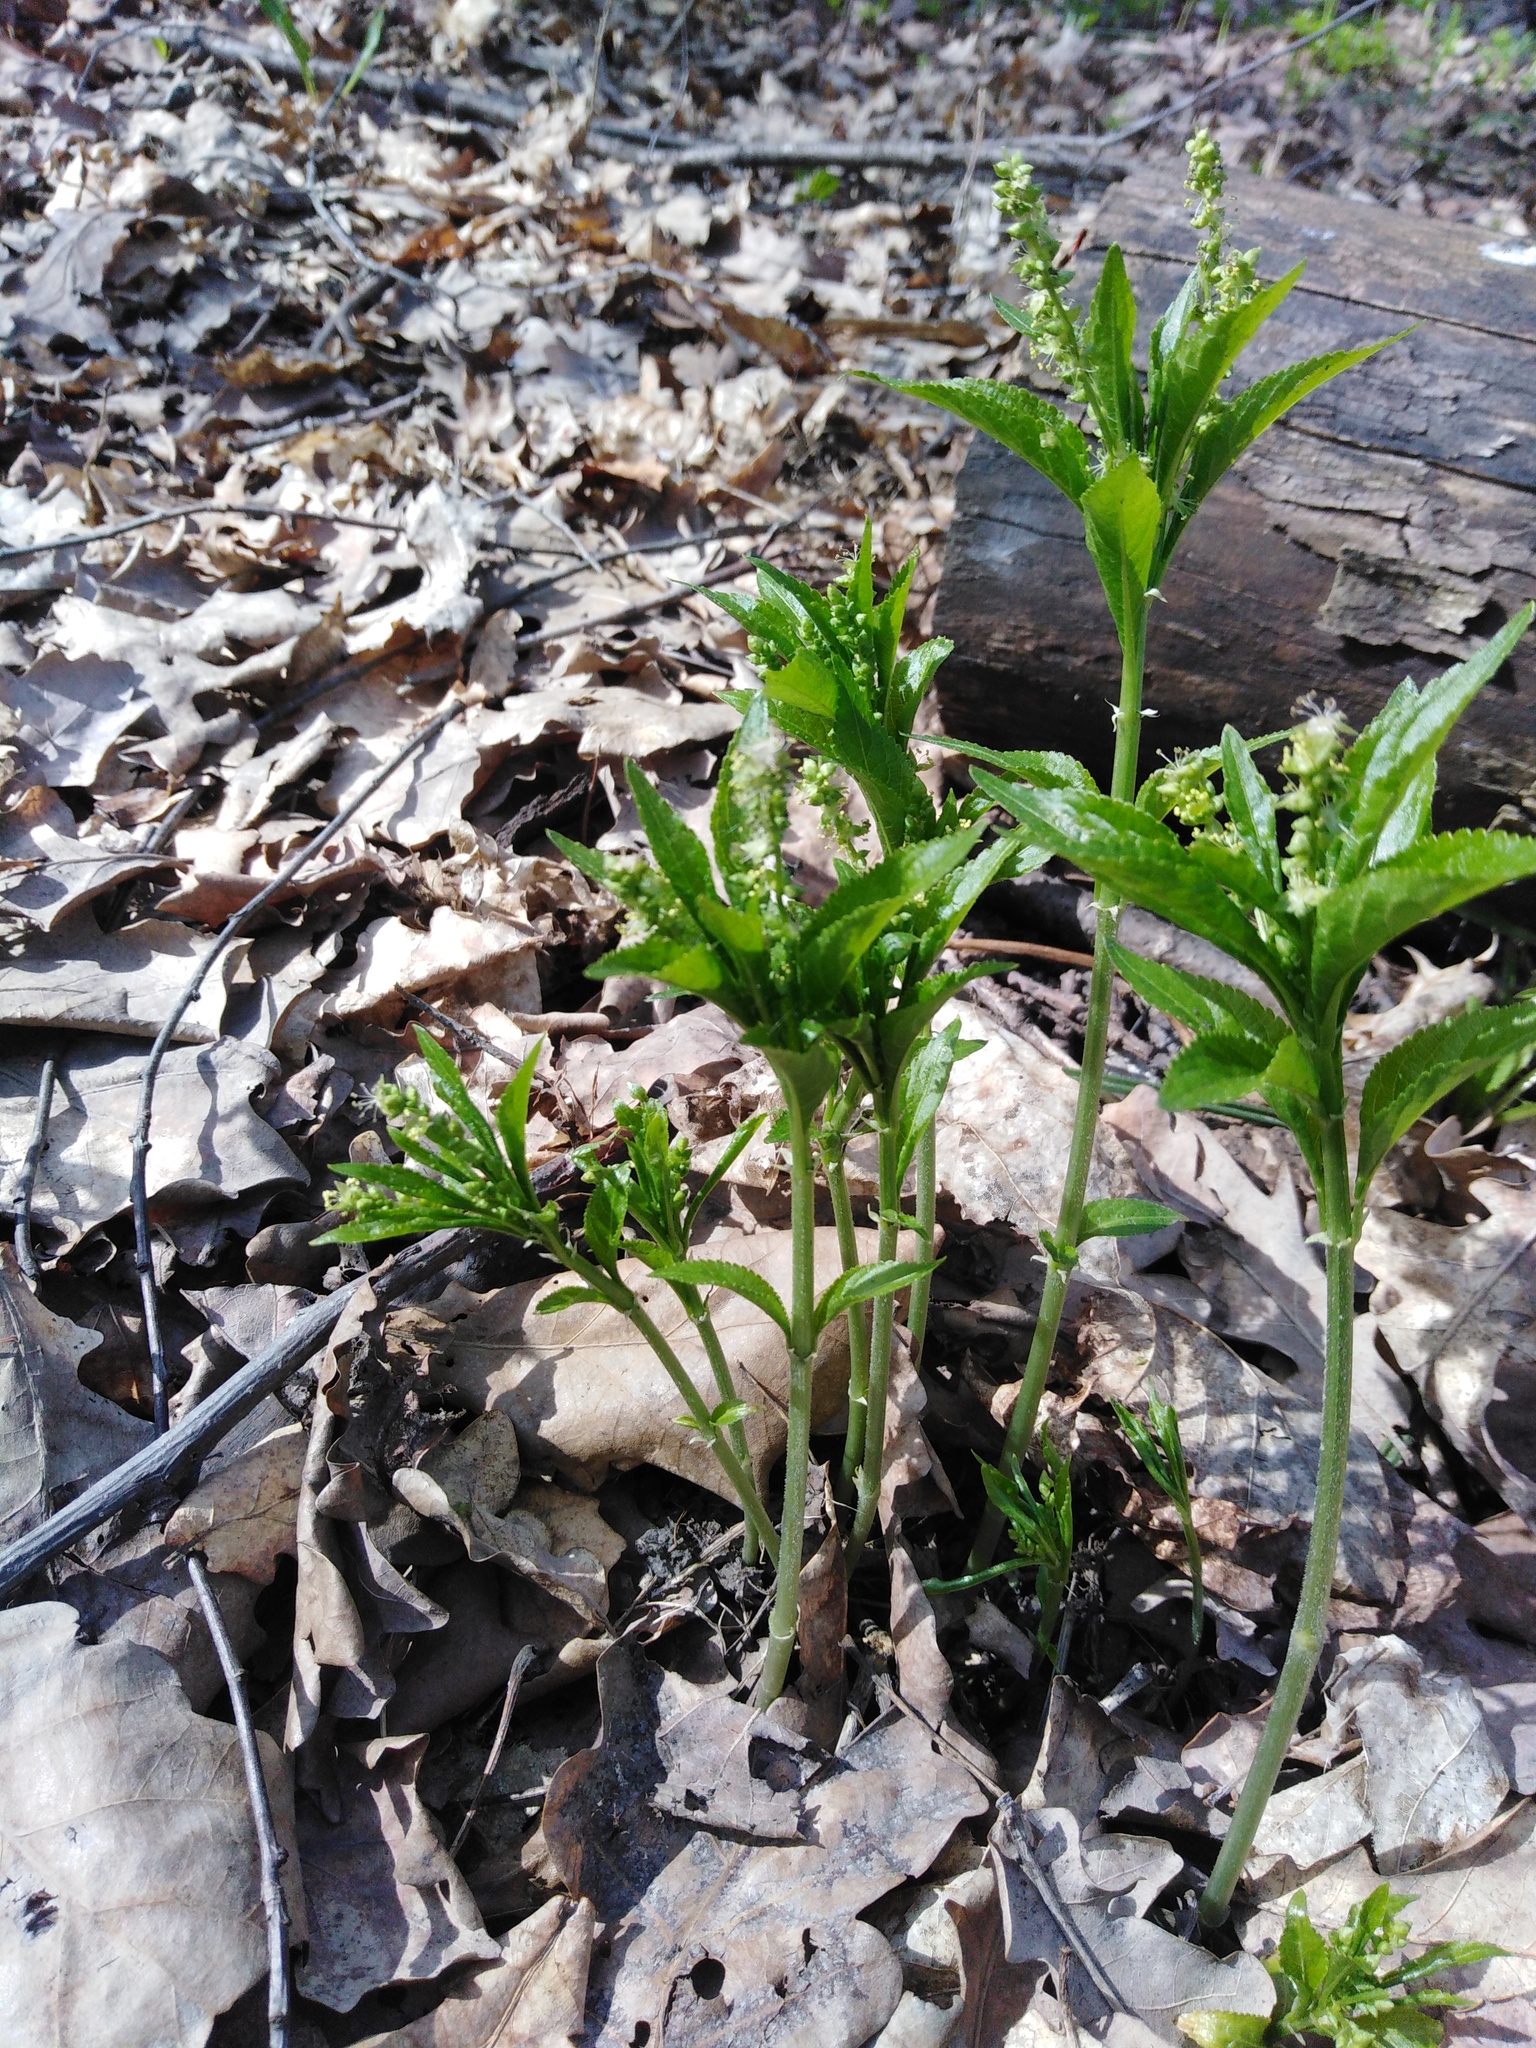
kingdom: Plantae
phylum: Tracheophyta
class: Magnoliopsida
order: Malpighiales
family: Euphorbiaceae
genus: Mercurialis
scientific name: Mercurialis perennis
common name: Dog mercury
